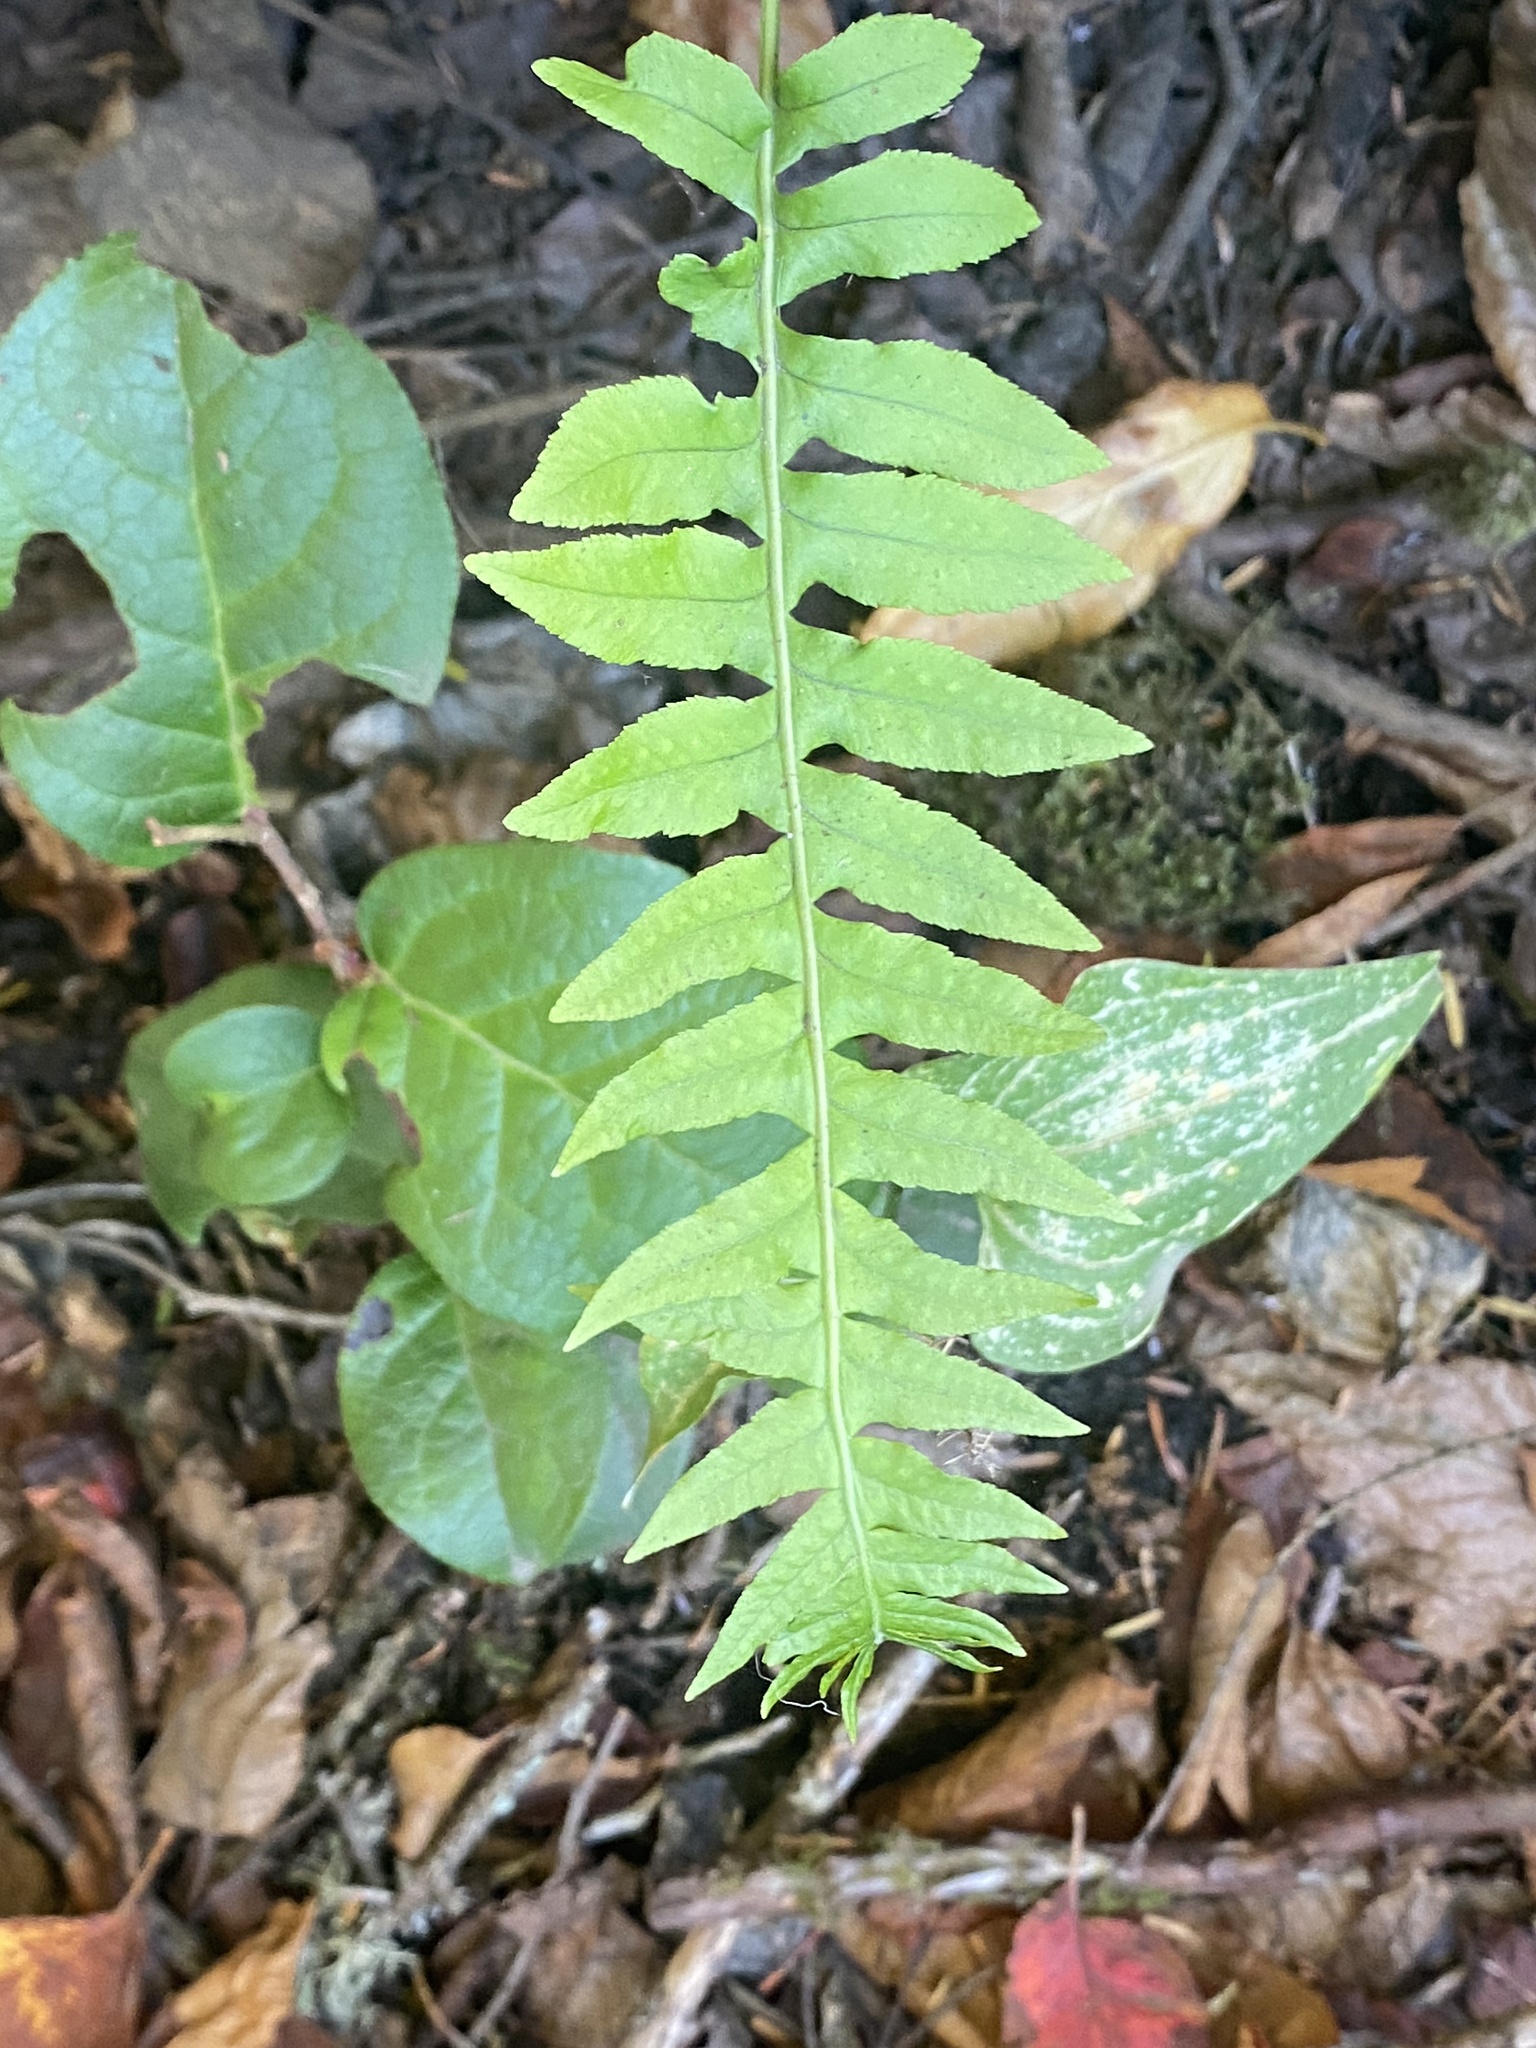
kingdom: Plantae
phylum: Tracheophyta
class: Polypodiopsida
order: Polypodiales
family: Polypodiaceae
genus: Polypodium
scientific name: Polypodium glycyrrhiza
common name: Licorice fern
